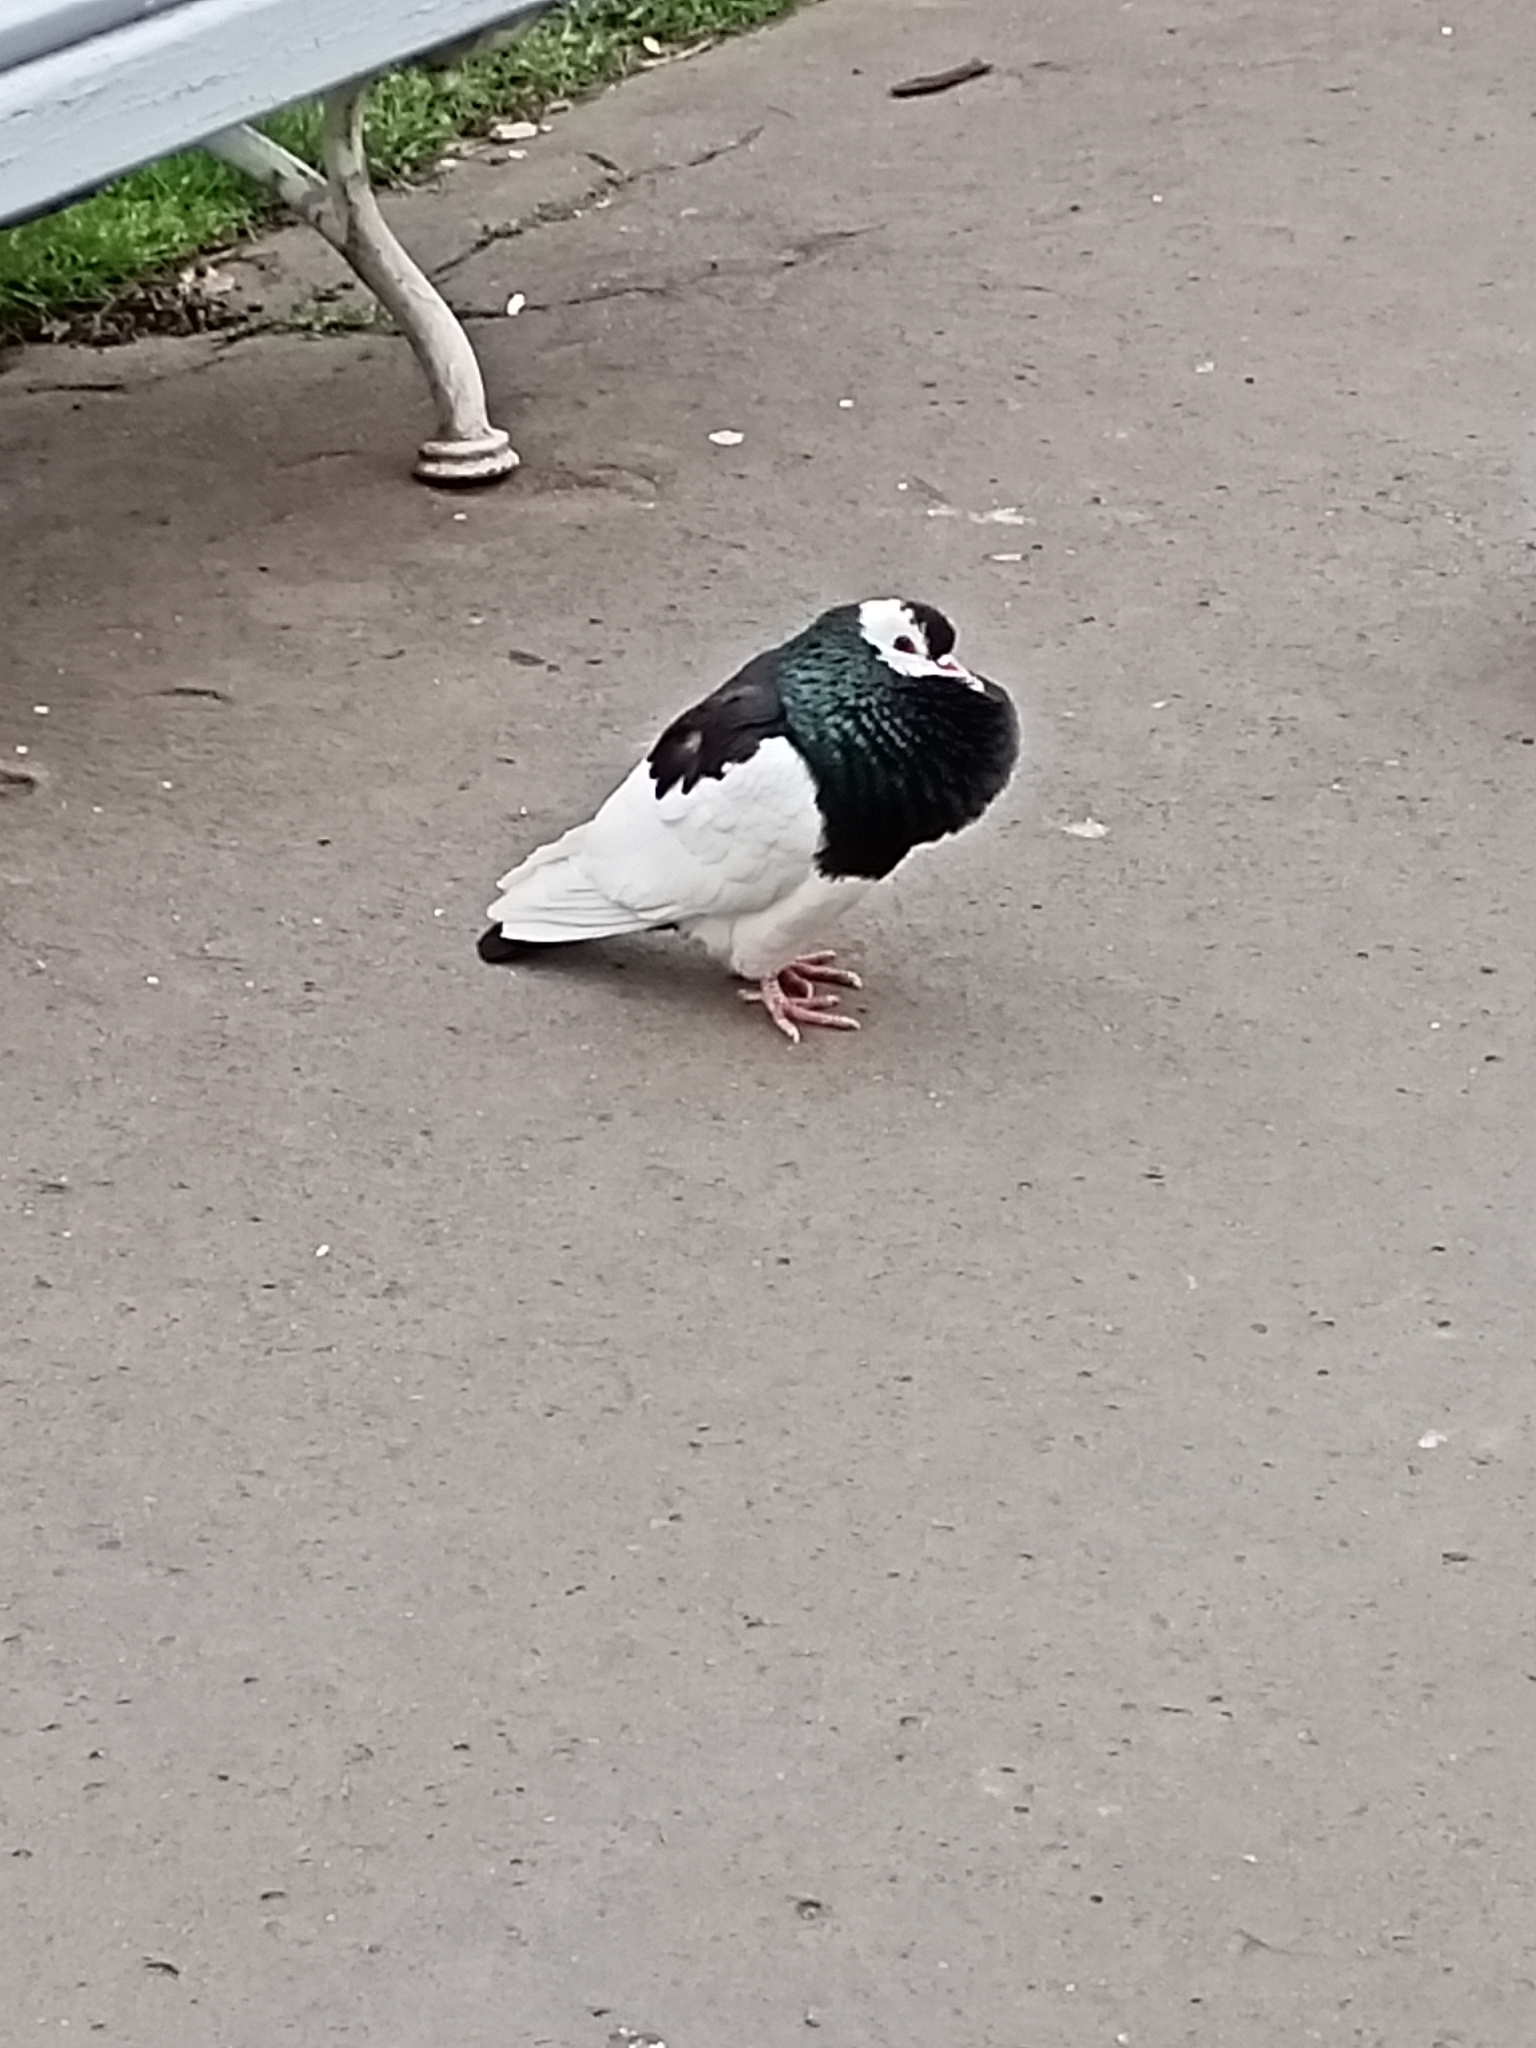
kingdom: Animalia
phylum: Chordata
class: Aves
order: Columbiformes
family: Columbidae
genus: Columba
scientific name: Columba livia
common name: Rock pigeon
